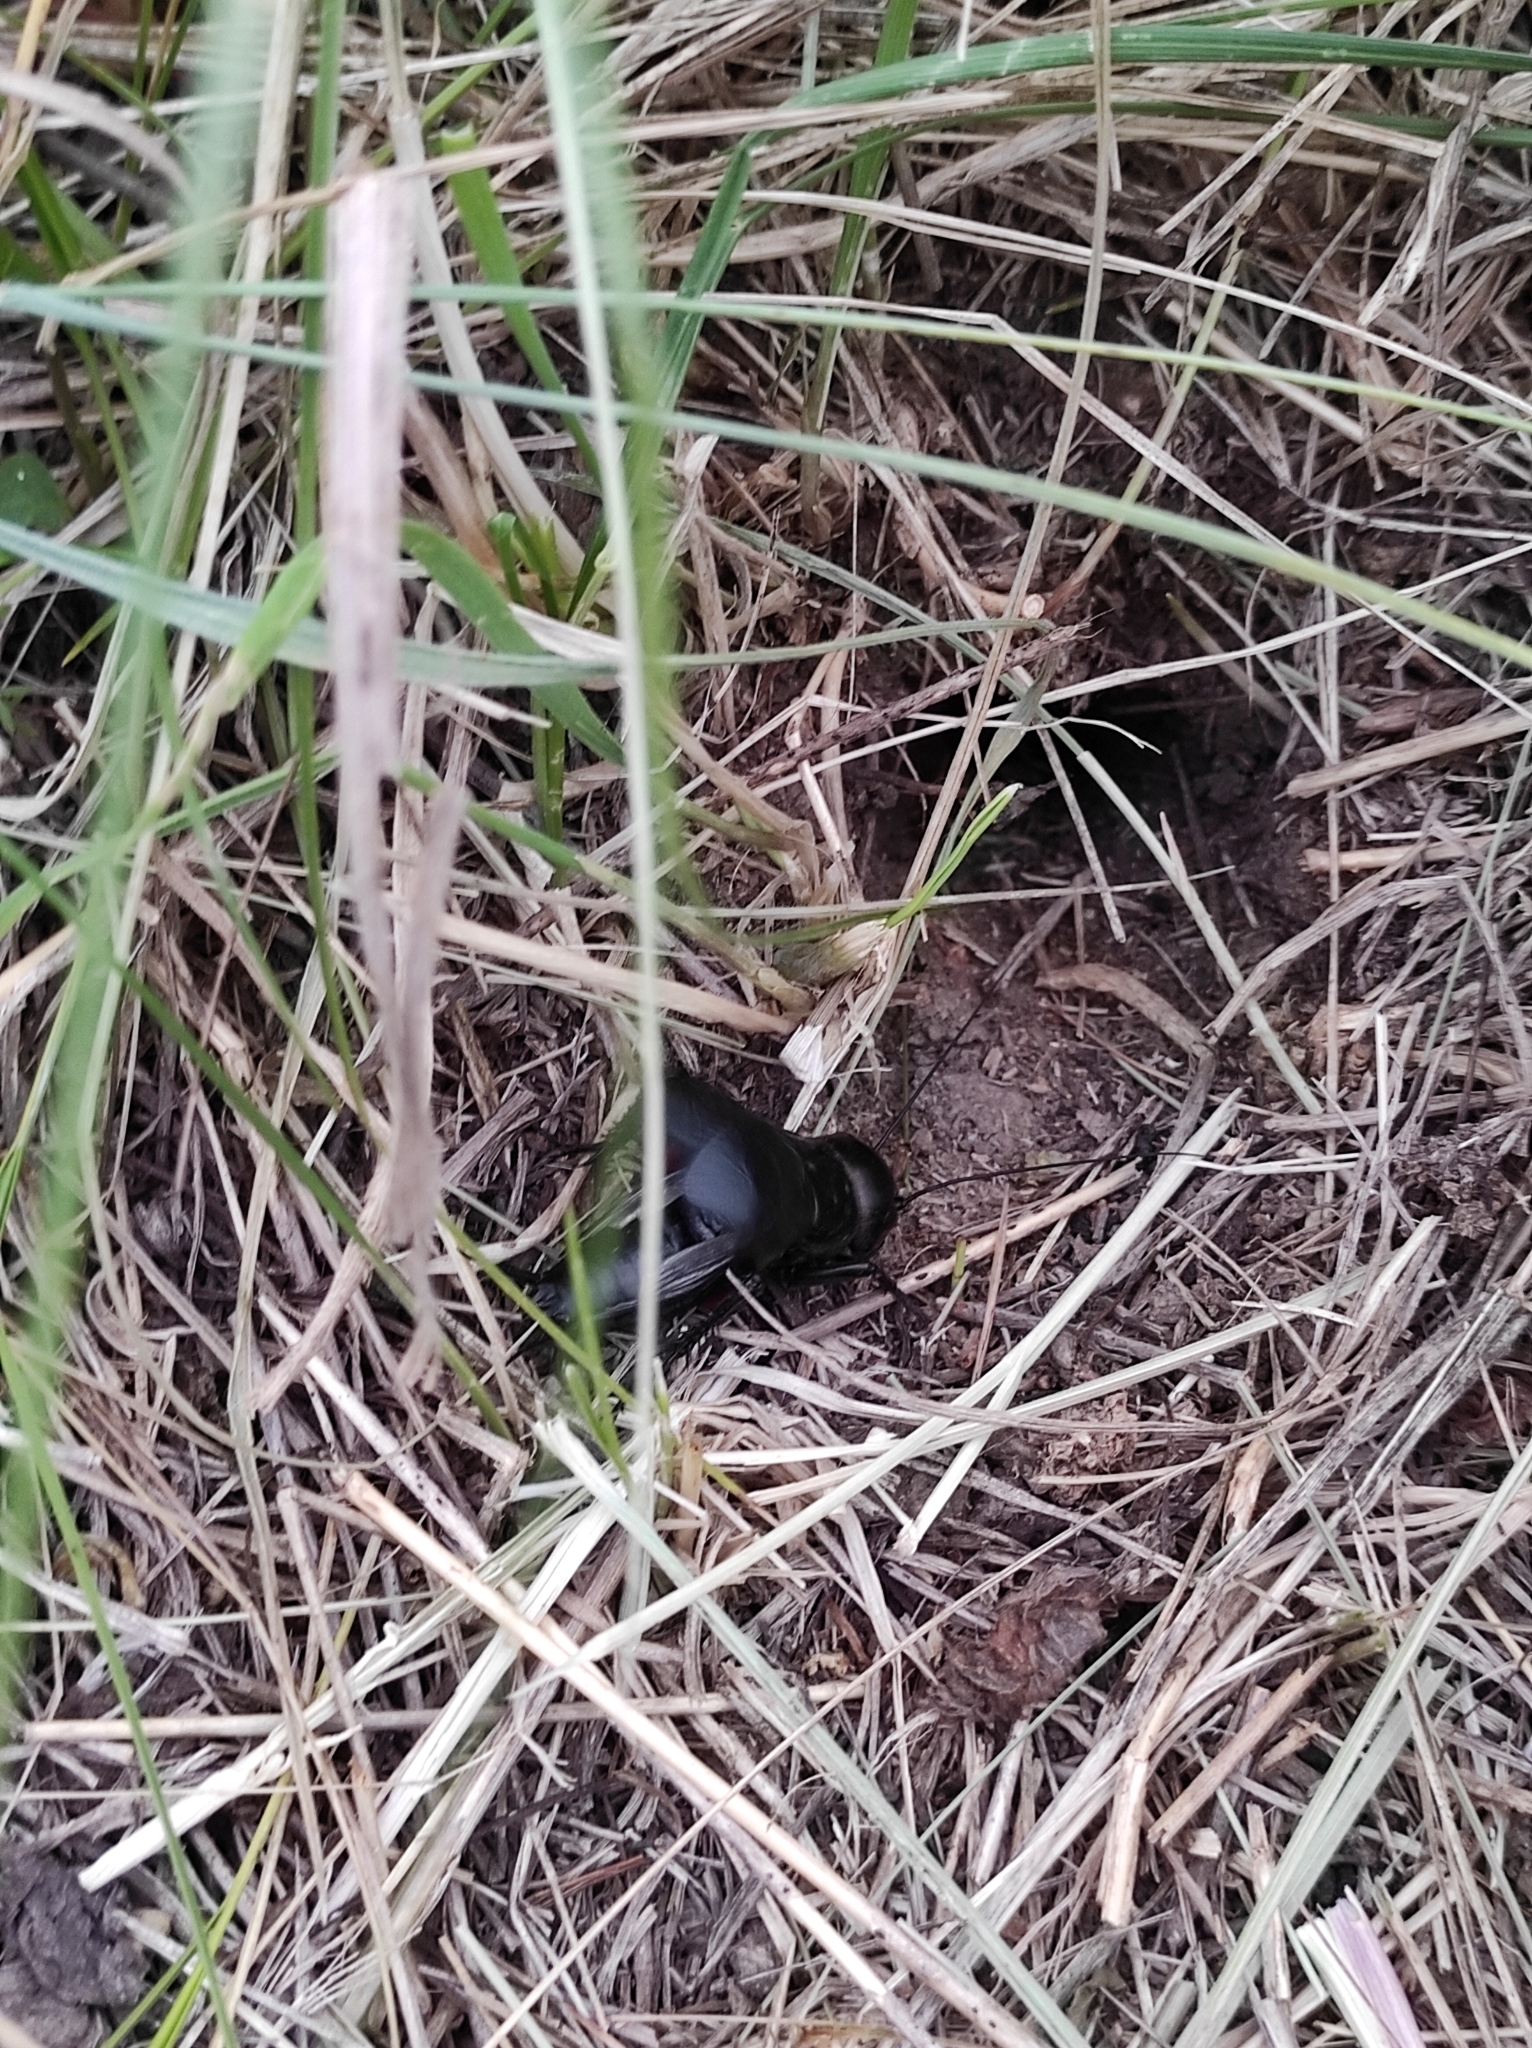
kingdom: Animalia
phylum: Arthropoda
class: Insecta
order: Orthoptera
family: Gryllidae
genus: Gryllus
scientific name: Gryllus campestris
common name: Field cricket
